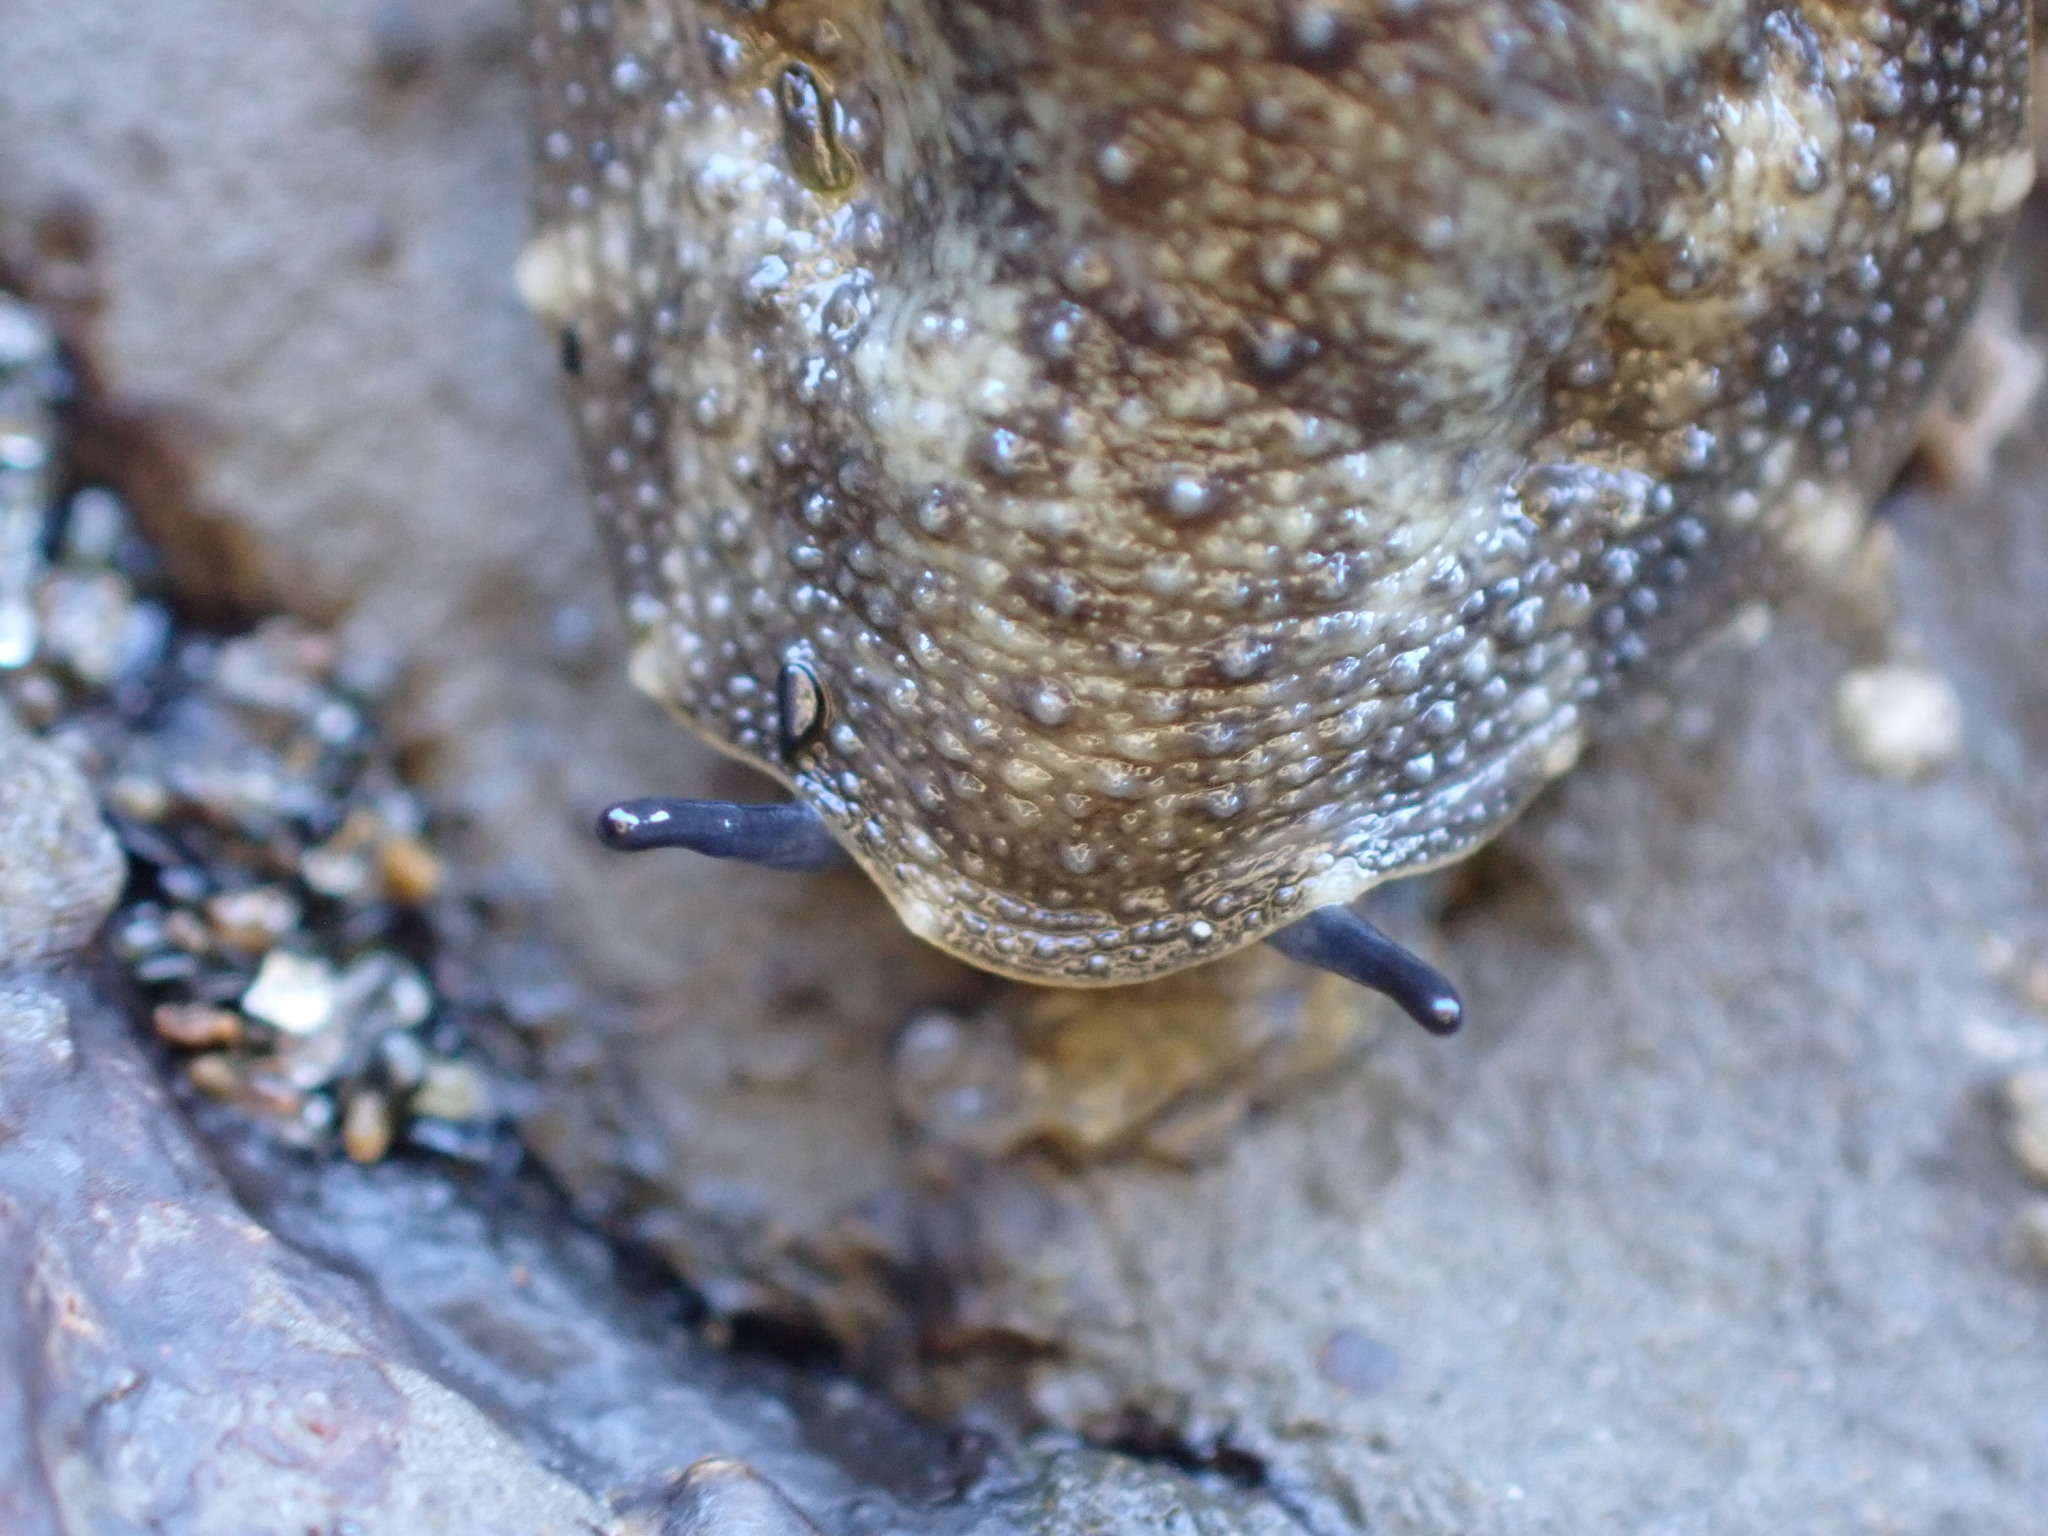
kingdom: Animalia
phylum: Mollusca
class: Gastropoda
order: Systellommatophora
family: Onchidiidae
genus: Onchidella
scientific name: Onchidella nigricans
